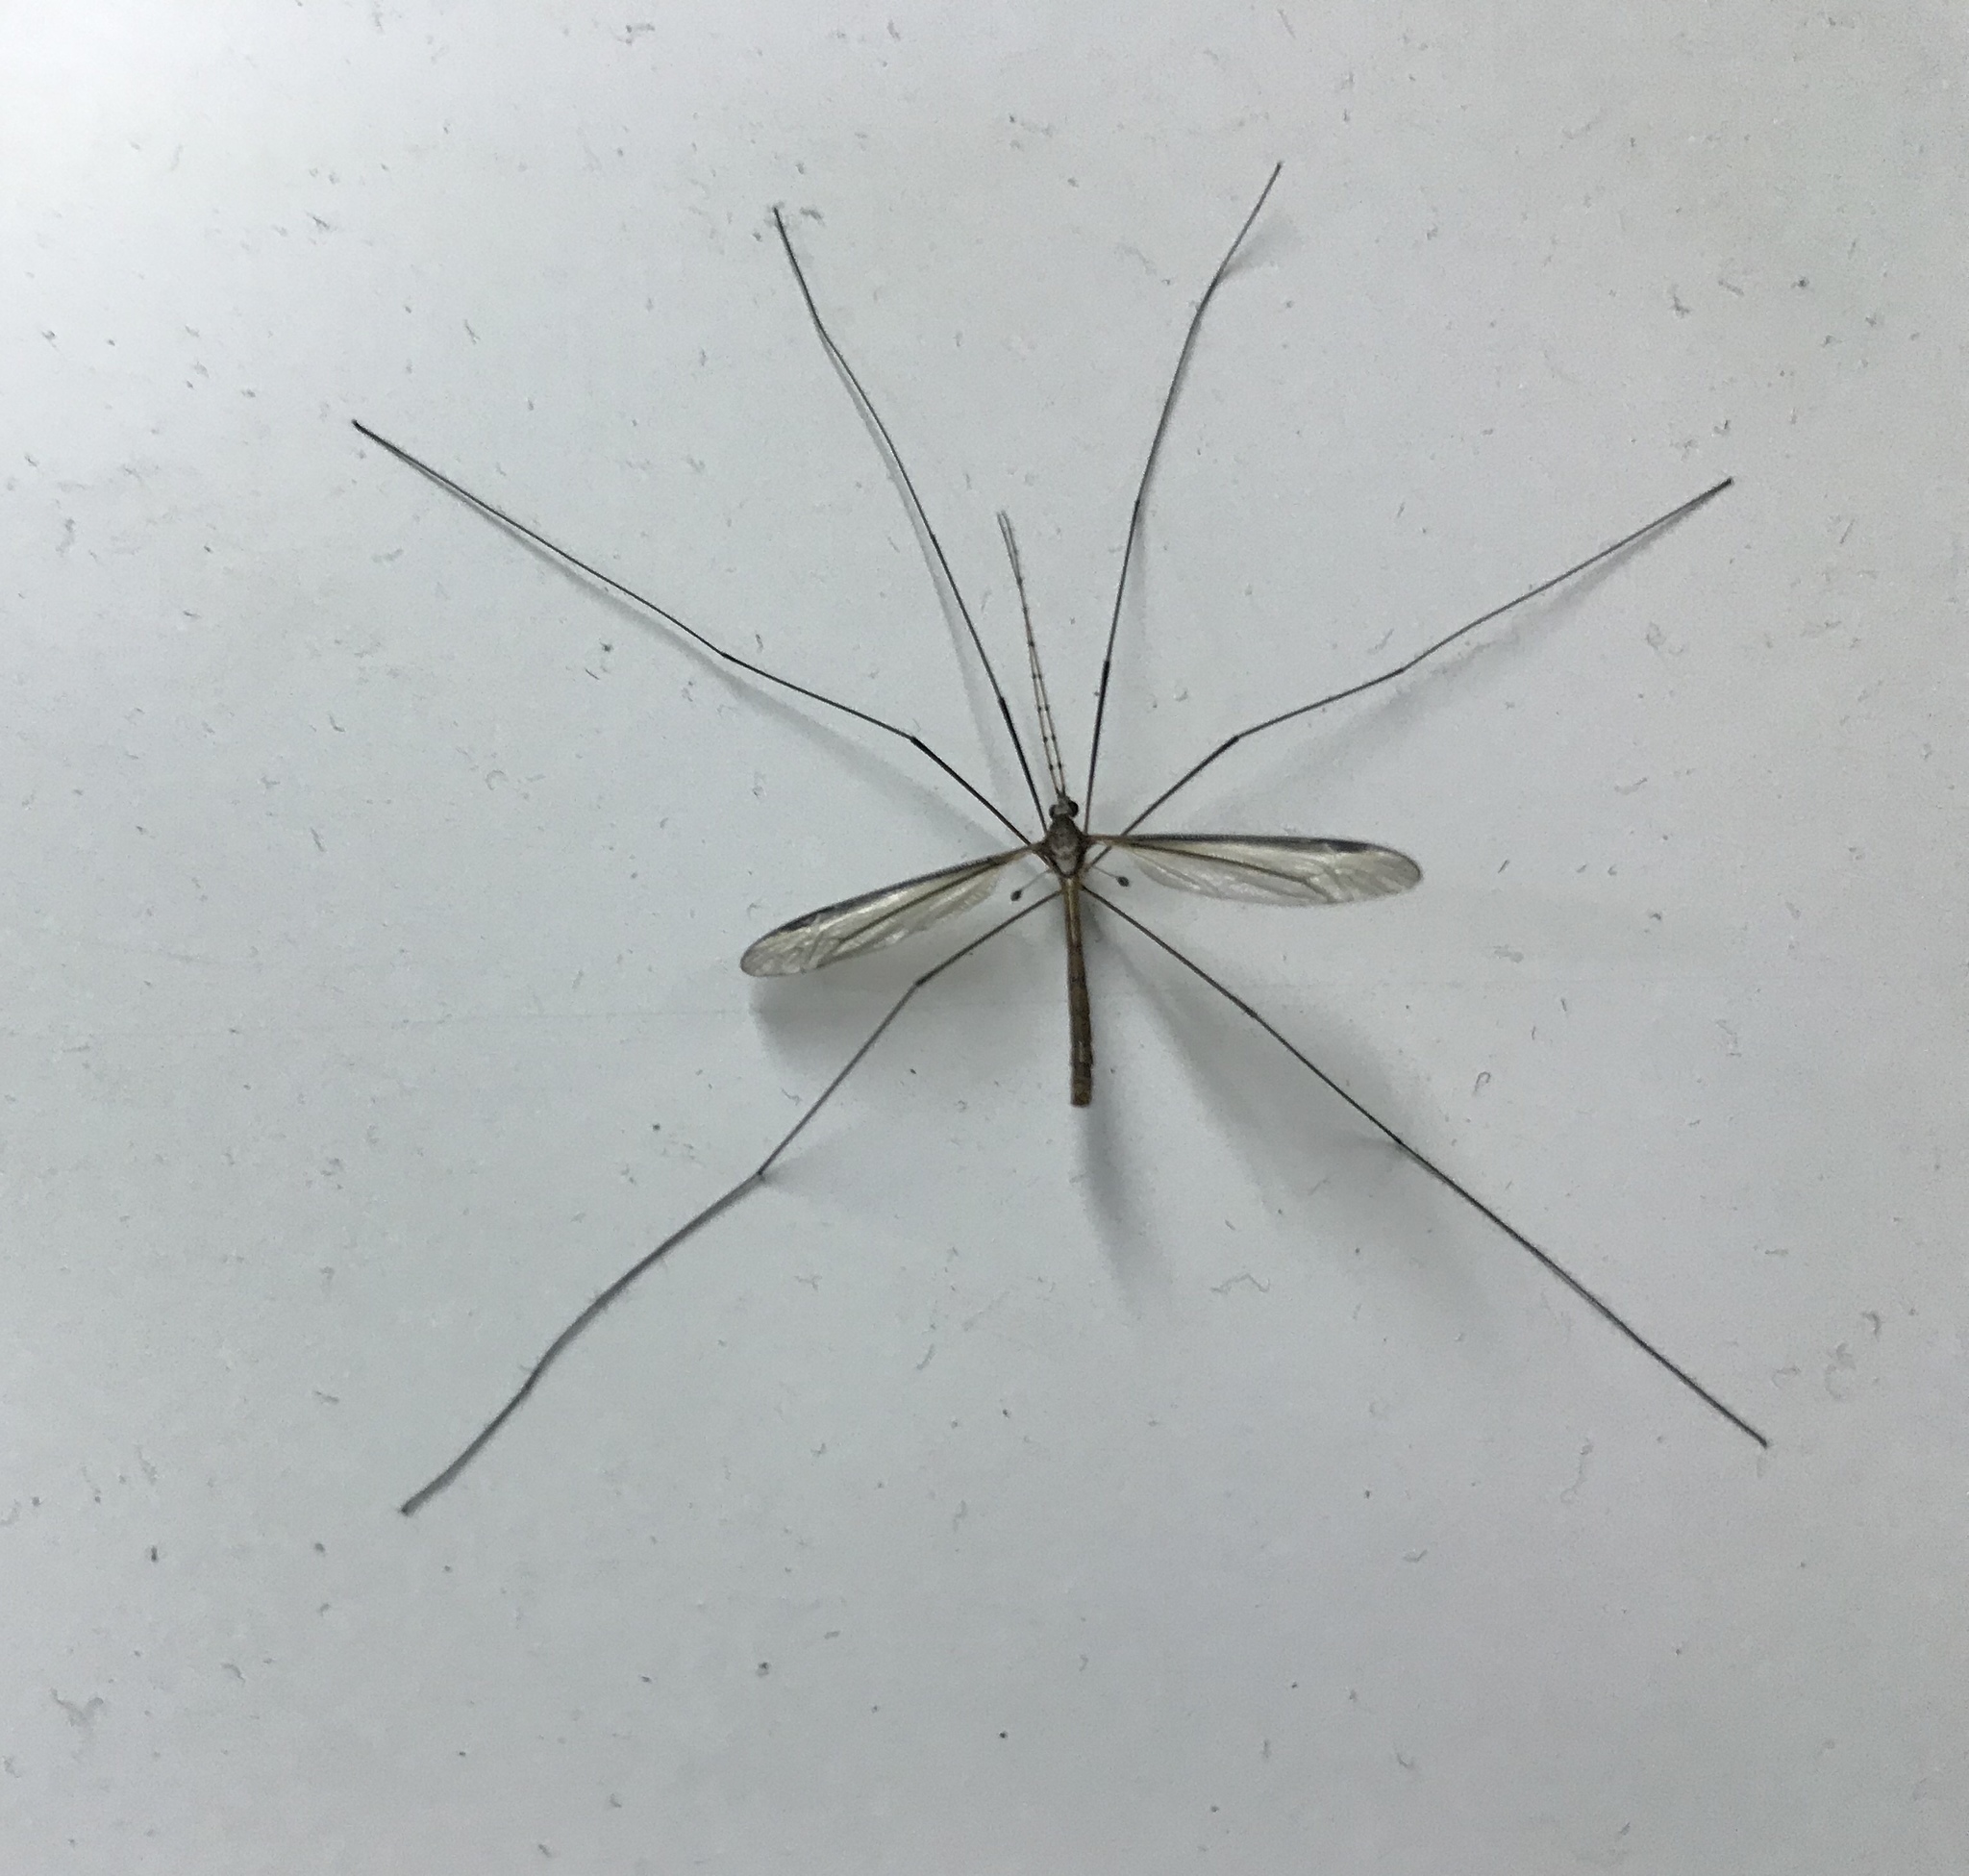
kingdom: Animalia
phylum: Arthropoda
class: Insecta
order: Diptera
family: Tipulidae
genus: Tipula
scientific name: Tipula ludoviciana
